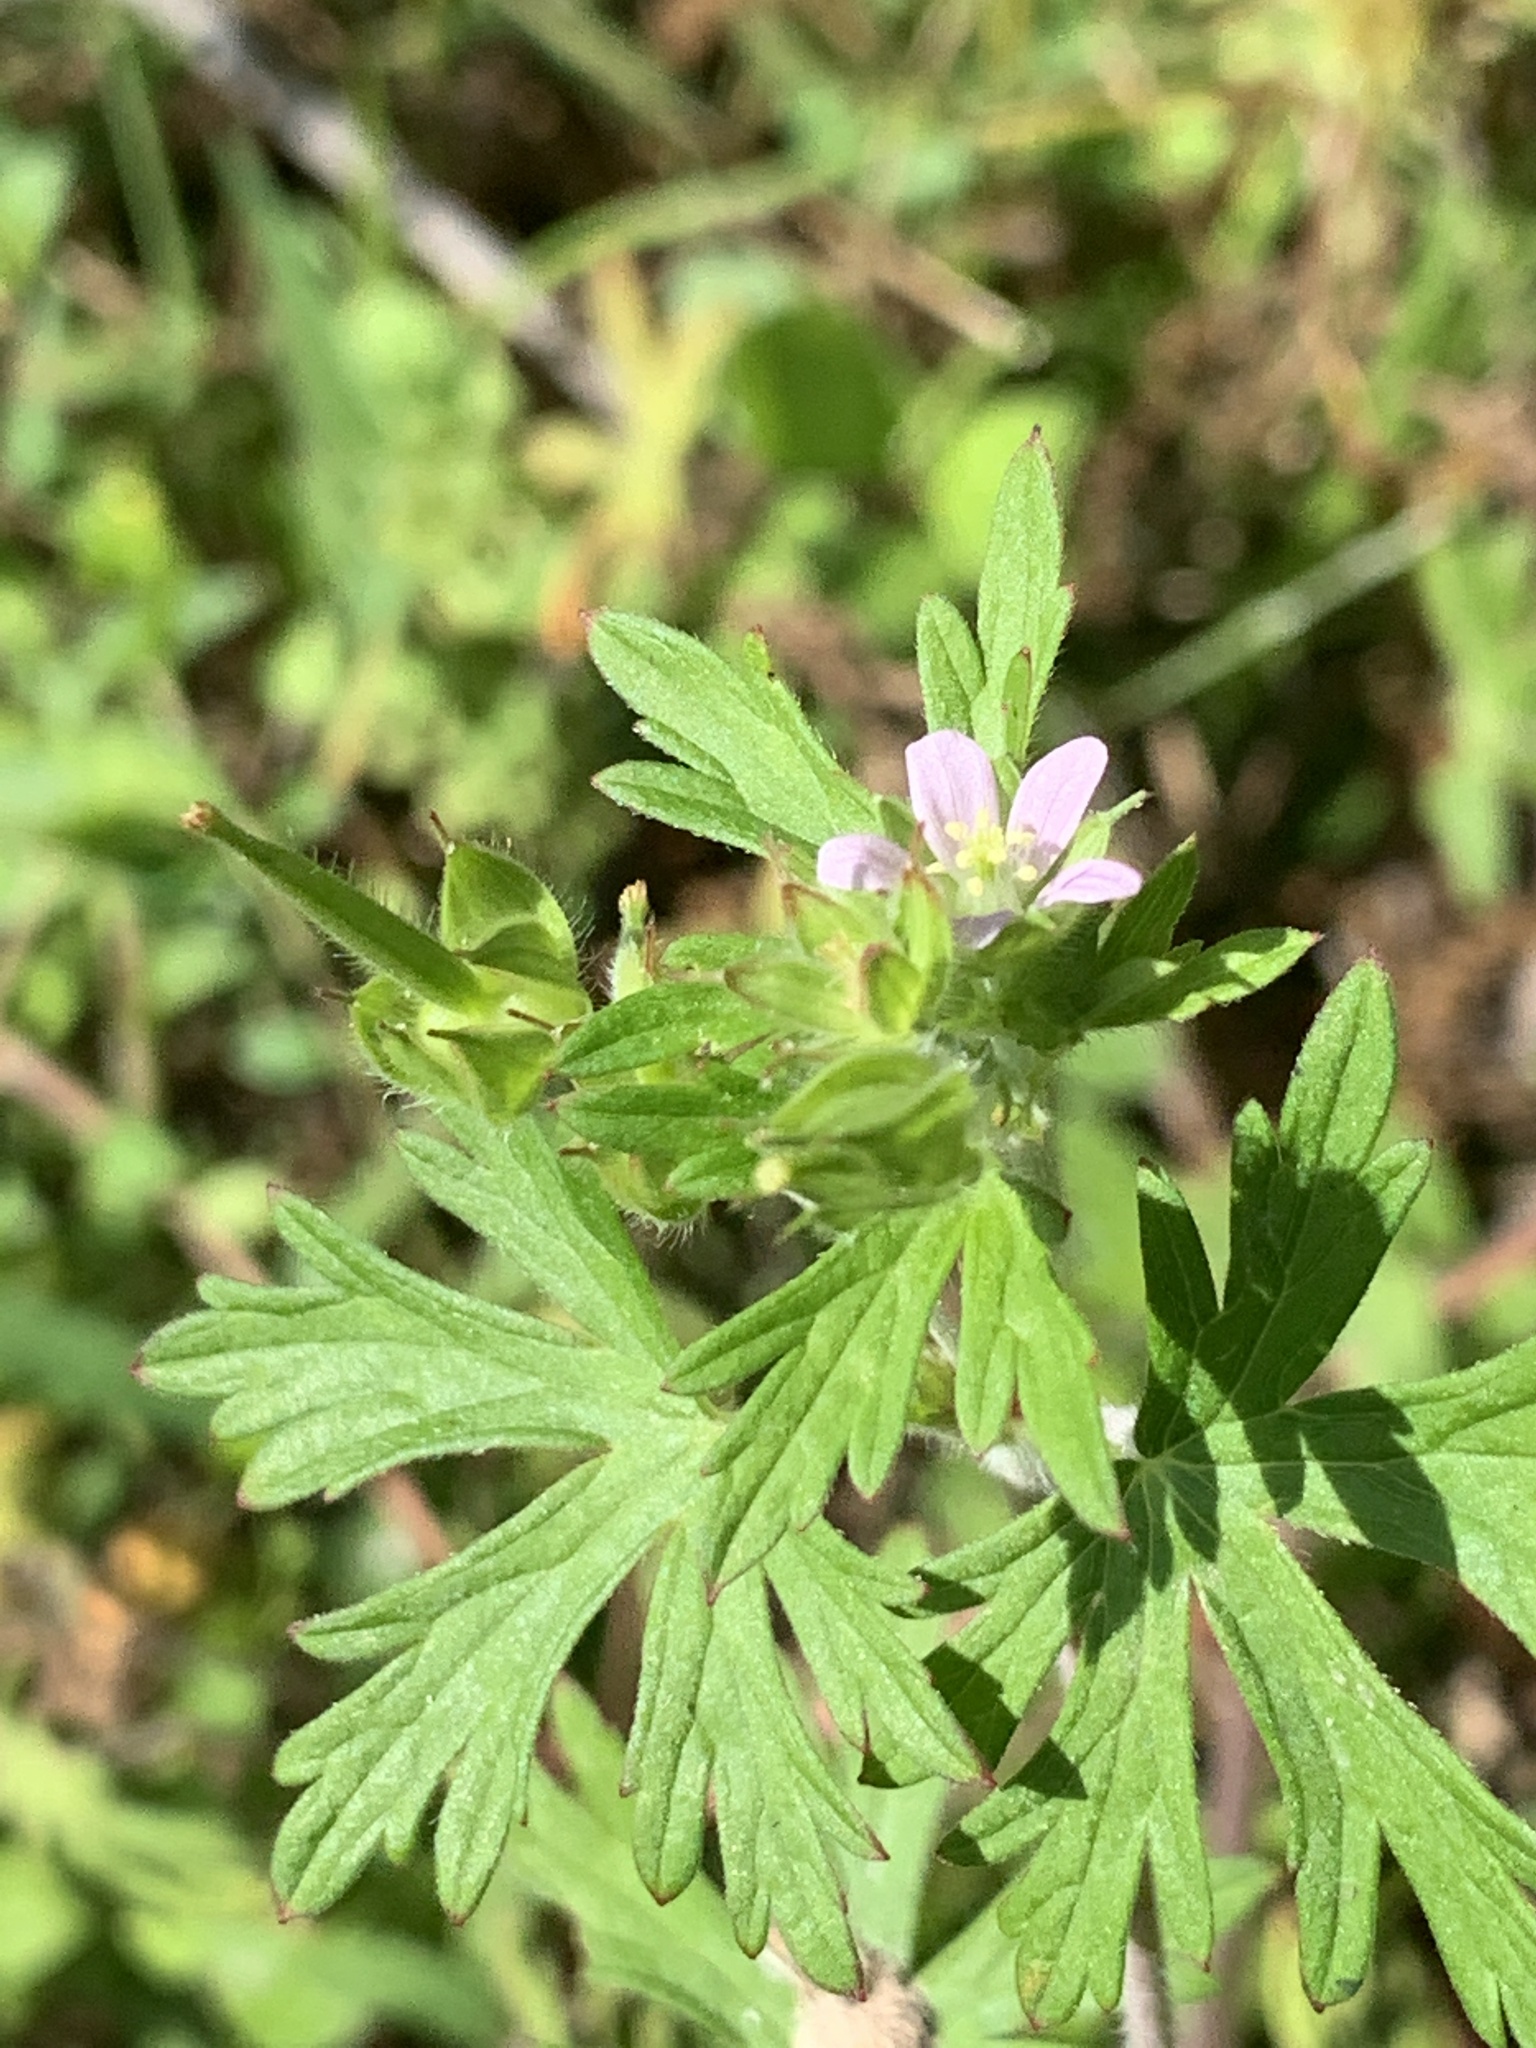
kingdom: Plantae
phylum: Tracheophyta
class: Magnoliopsida
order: Geraniales
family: Geraniaceae
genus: Geranium
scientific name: Geranium carolinianum
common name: Carolina crane's-bill
